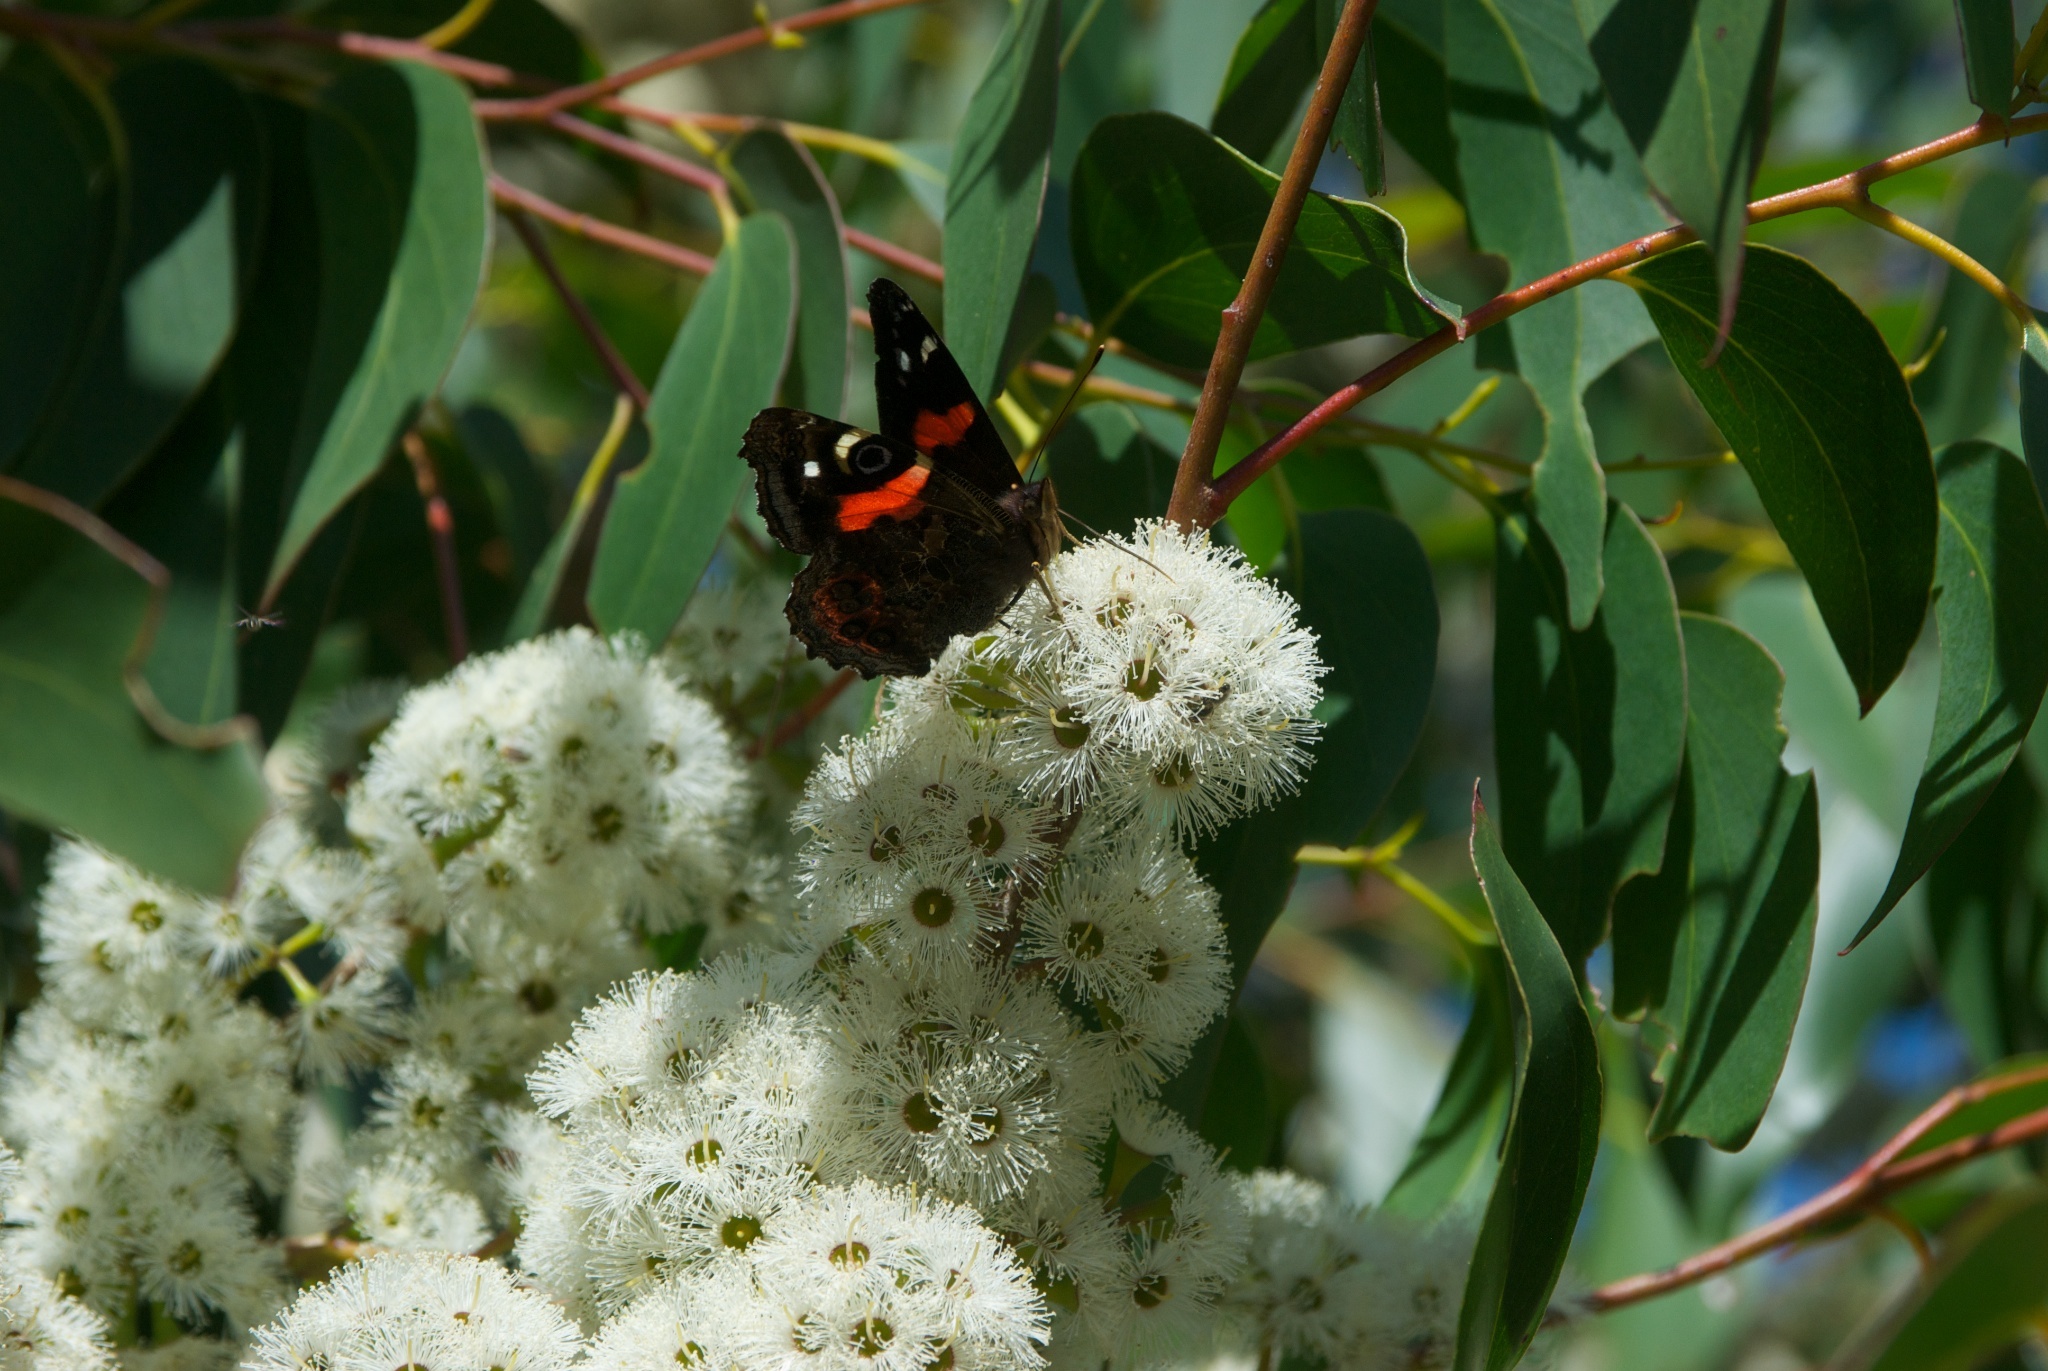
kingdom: Animalia
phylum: Arthropoda
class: Insecta
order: Lepidoptera
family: Nymphalidae
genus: Vanessa
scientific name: Vanessa gonerilla
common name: New zealand red admiral
